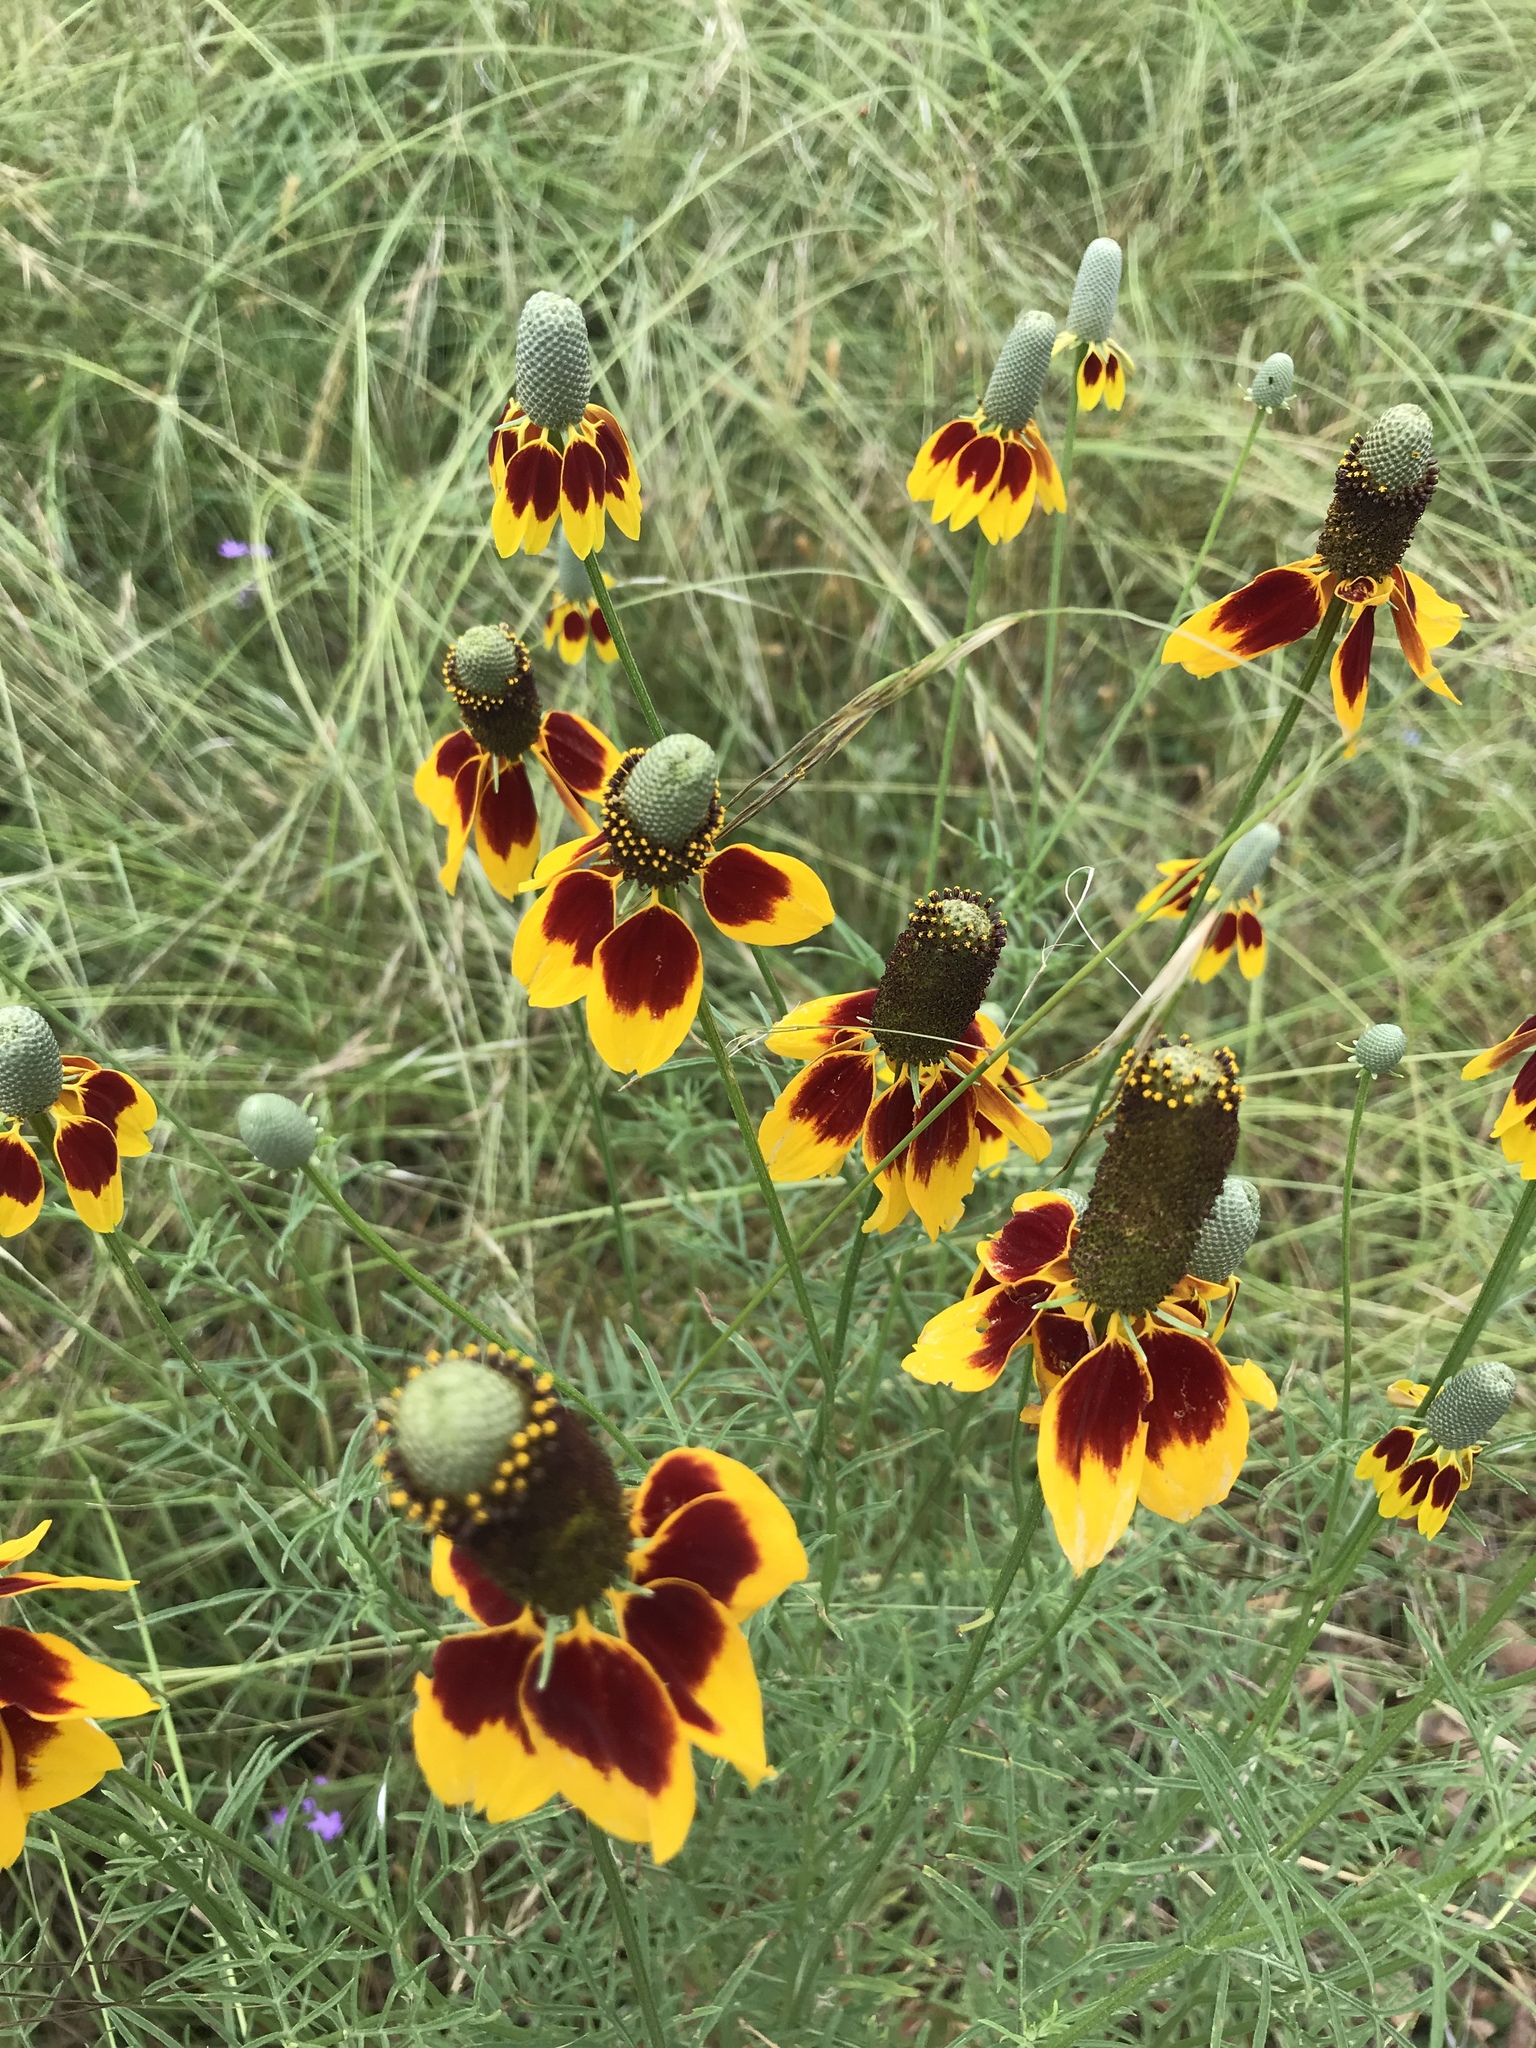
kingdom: Plantae
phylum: Tracheophyta
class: Magnoliopsida
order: Asterales
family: Asteraceae
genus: Ratibida
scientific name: Ratibida columnifera
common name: Prairie coneflower
